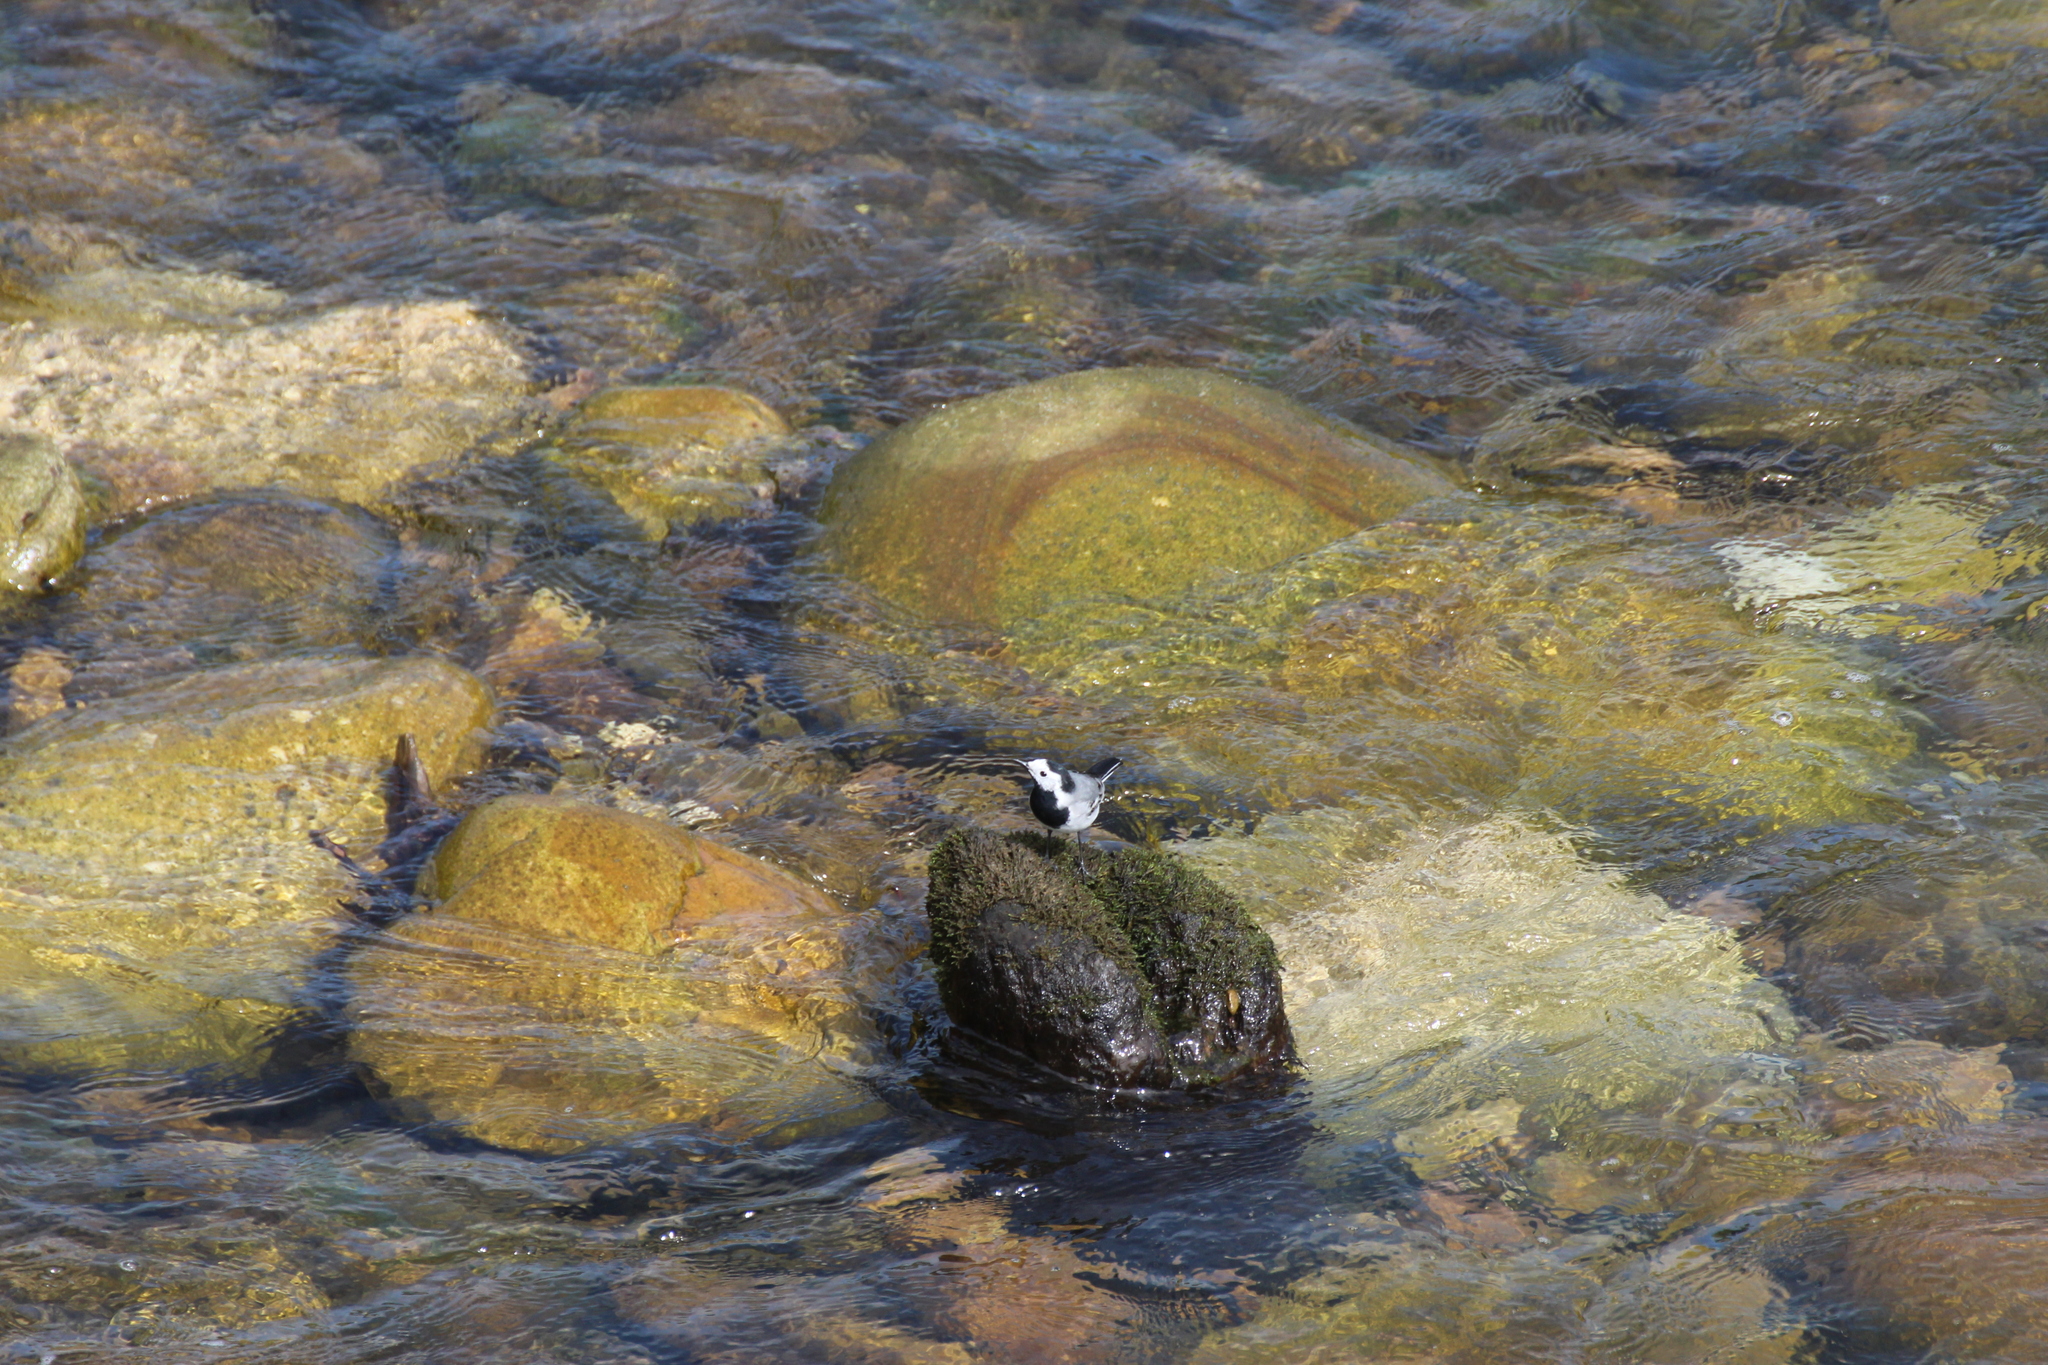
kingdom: Animalia
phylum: Chordata
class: Aves
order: Passeriformes
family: Motacillidae
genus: Motacilla
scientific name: Motacilla alba
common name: White wagtail
